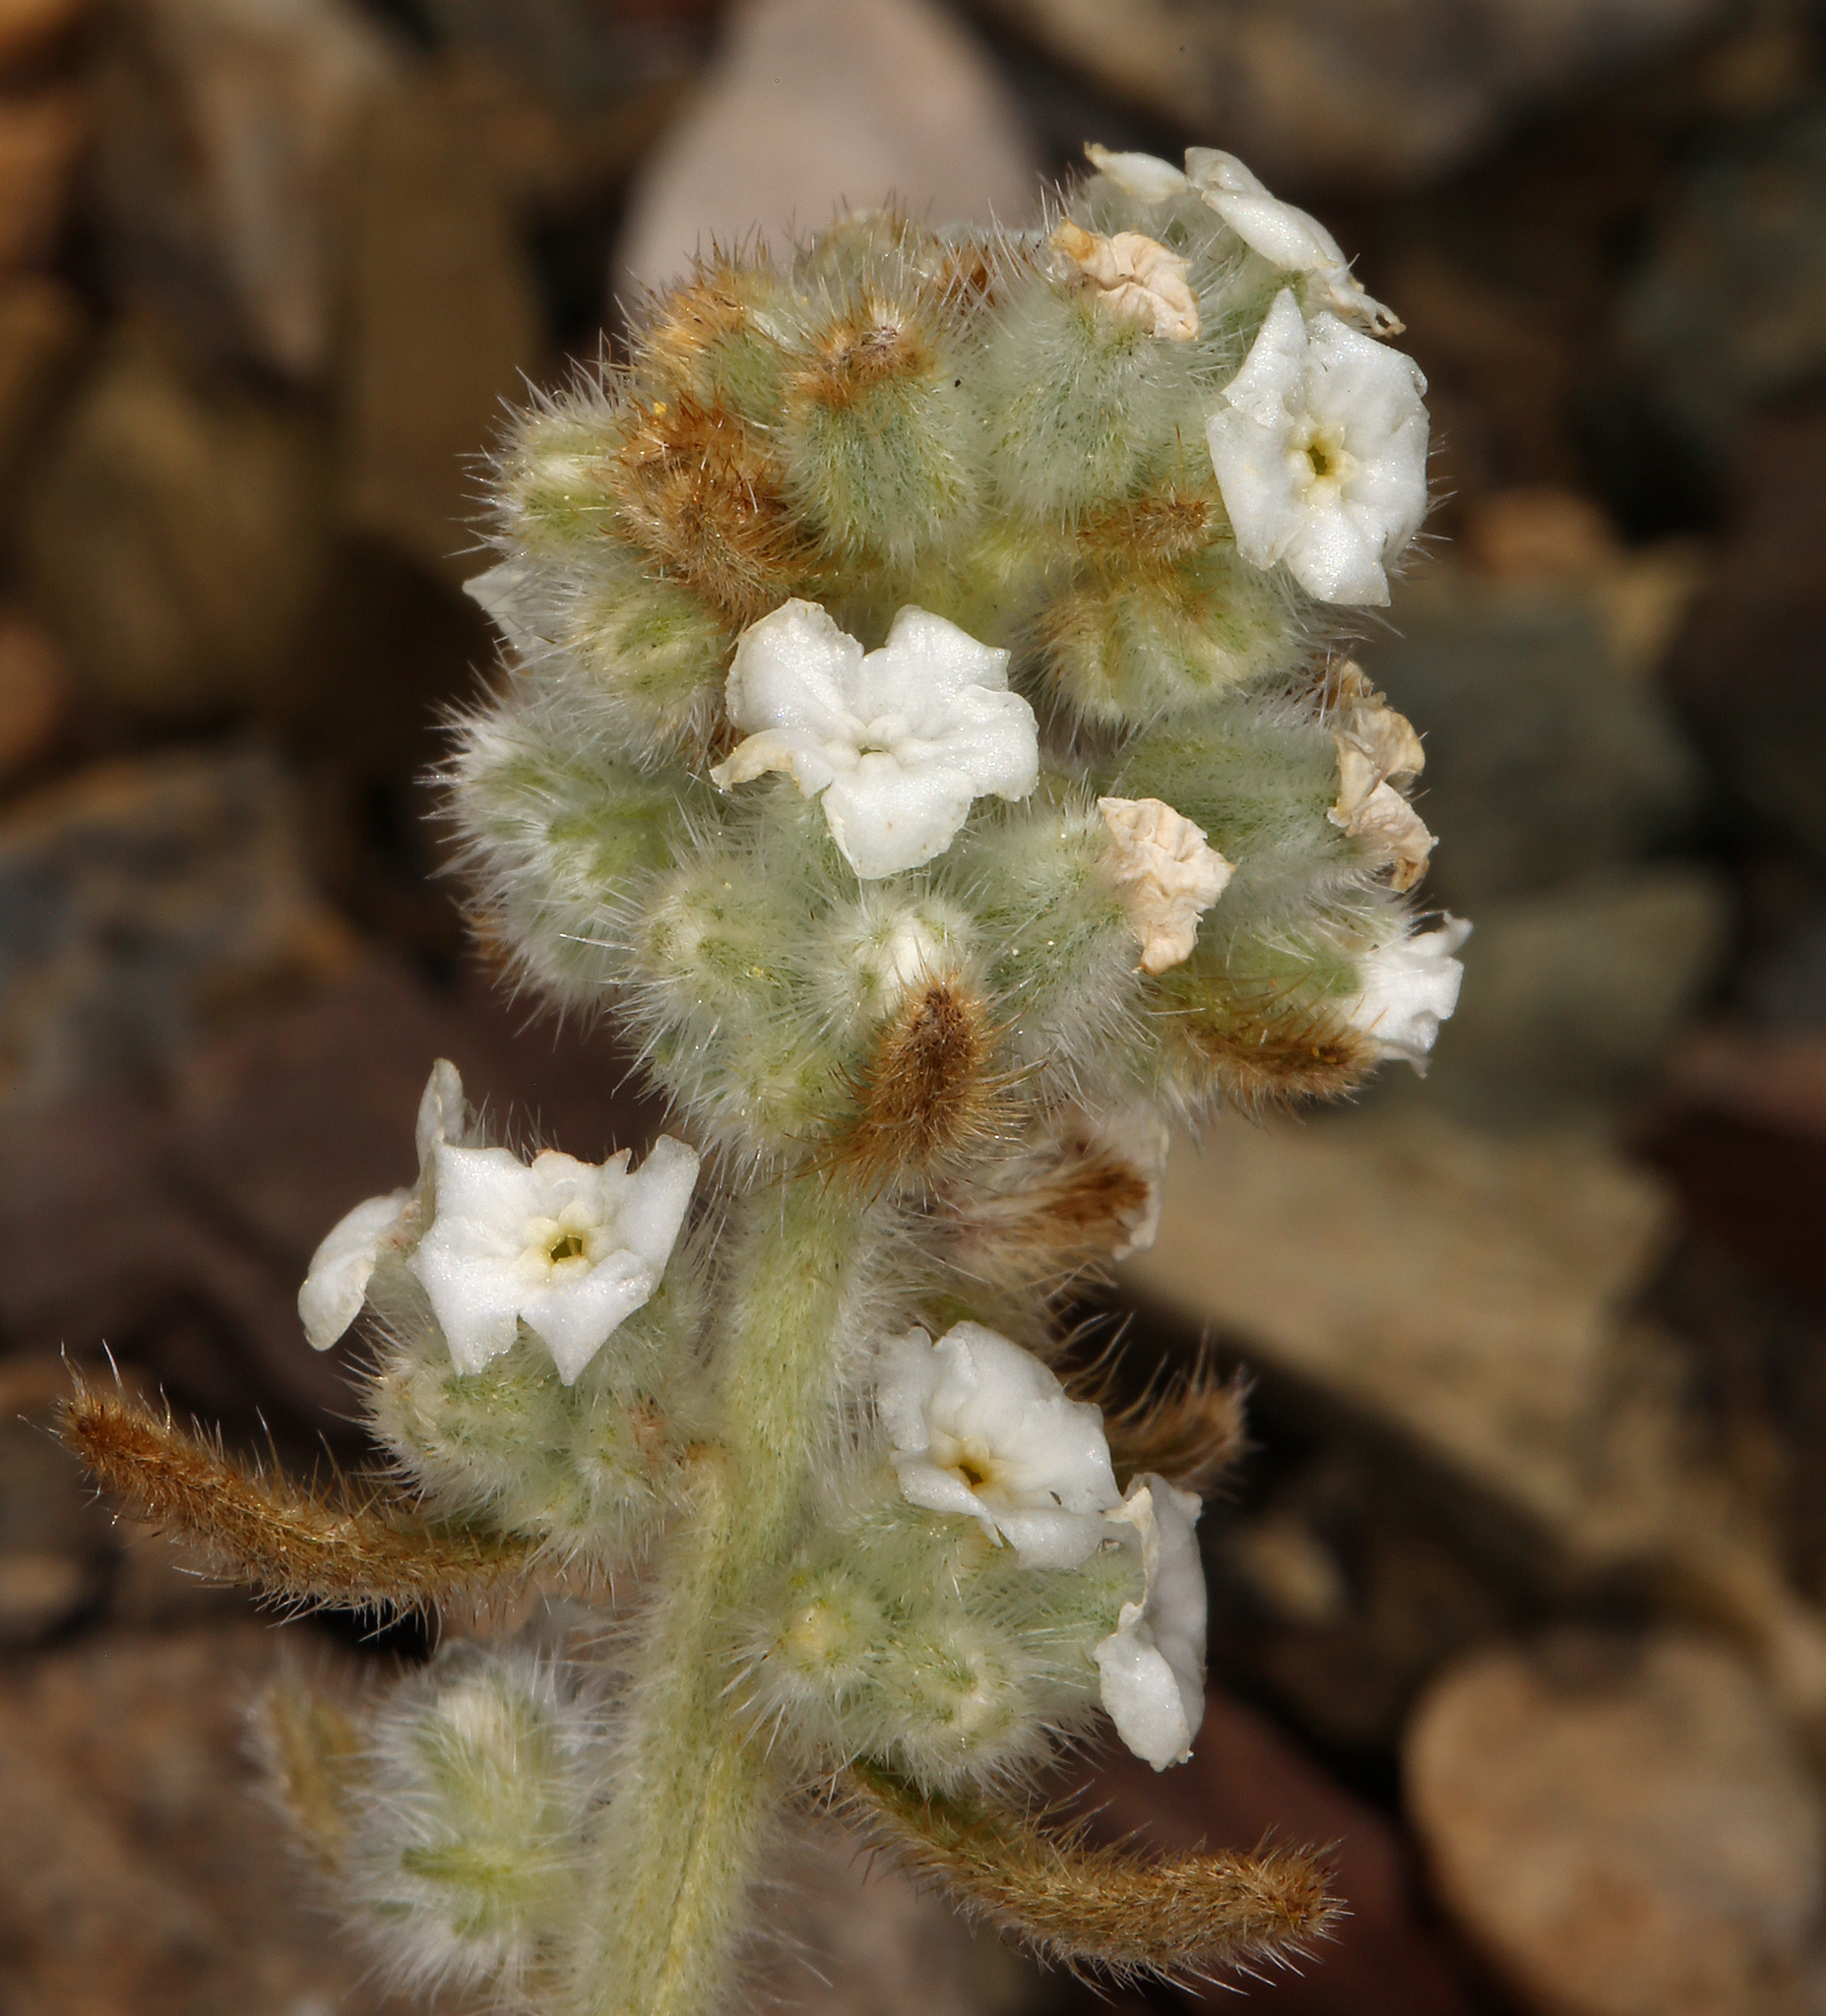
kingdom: Plantae
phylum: Tracheophyta
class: Magnoliopsida
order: Boraginales
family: Boraginaceae
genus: Oreocarya
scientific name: Oreocarya hoffmannii
